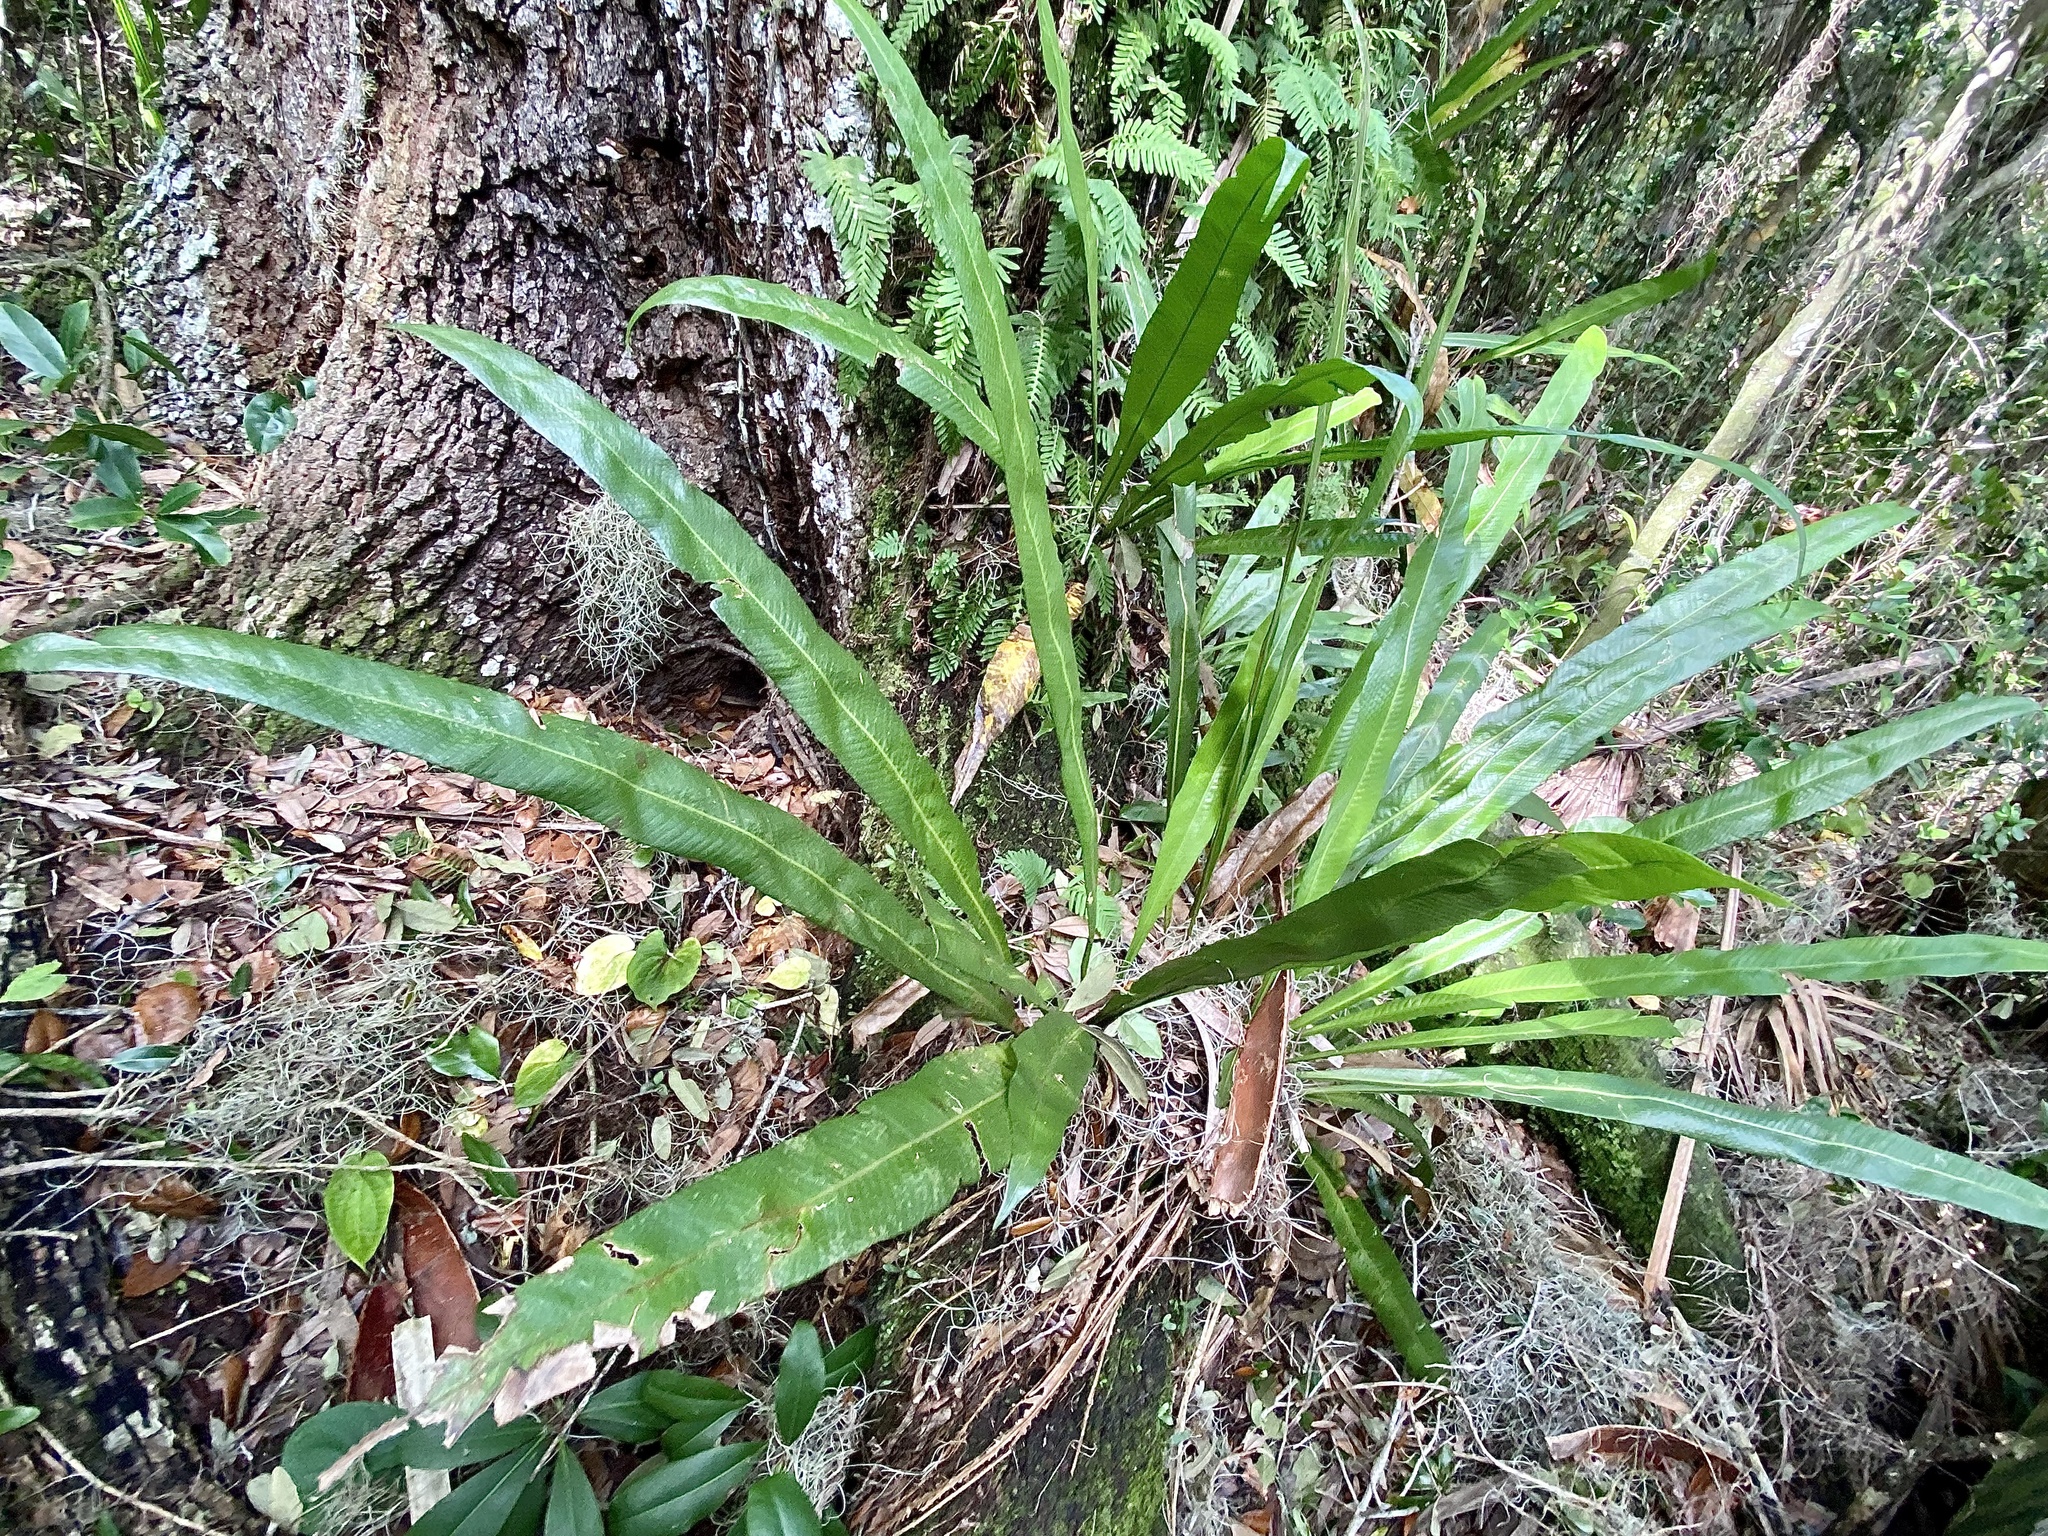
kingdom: Plantae
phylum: Tracheophyta
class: Polypodiopsida
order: Polypodiales
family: Polypodiaceae
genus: Campyloneurum
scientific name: Campyloneurum phyllitidis
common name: Cow-tongue fern
